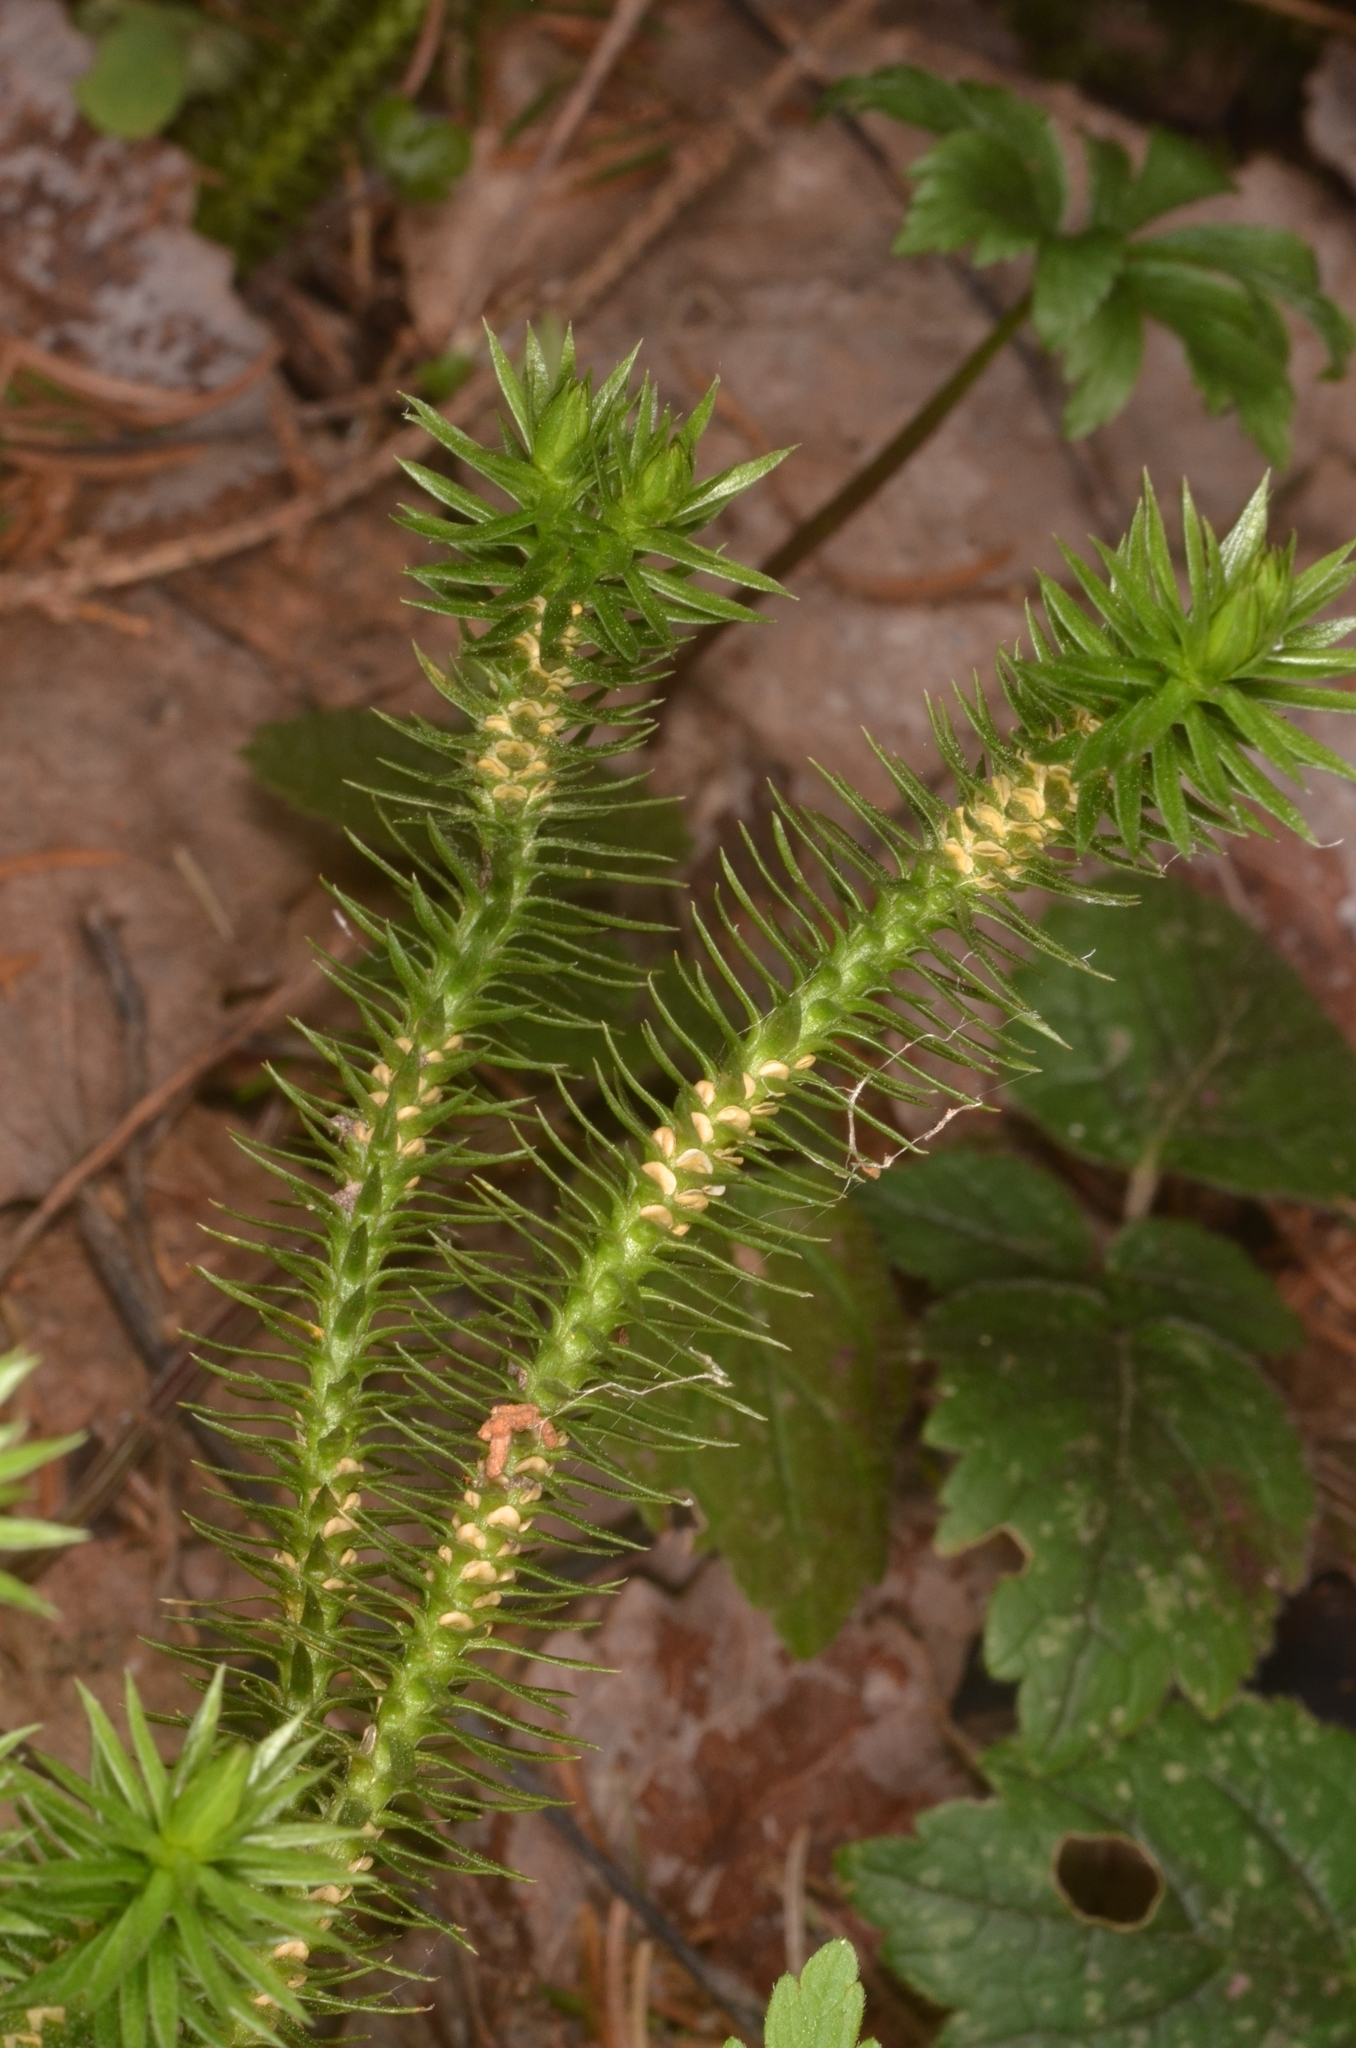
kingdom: Plantae
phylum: Tracheophyta
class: Lycopodiopsida
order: Lycopodiales
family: Lycopodiaceae
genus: Huperzia
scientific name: Huperzia selago
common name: Northern firmoss
